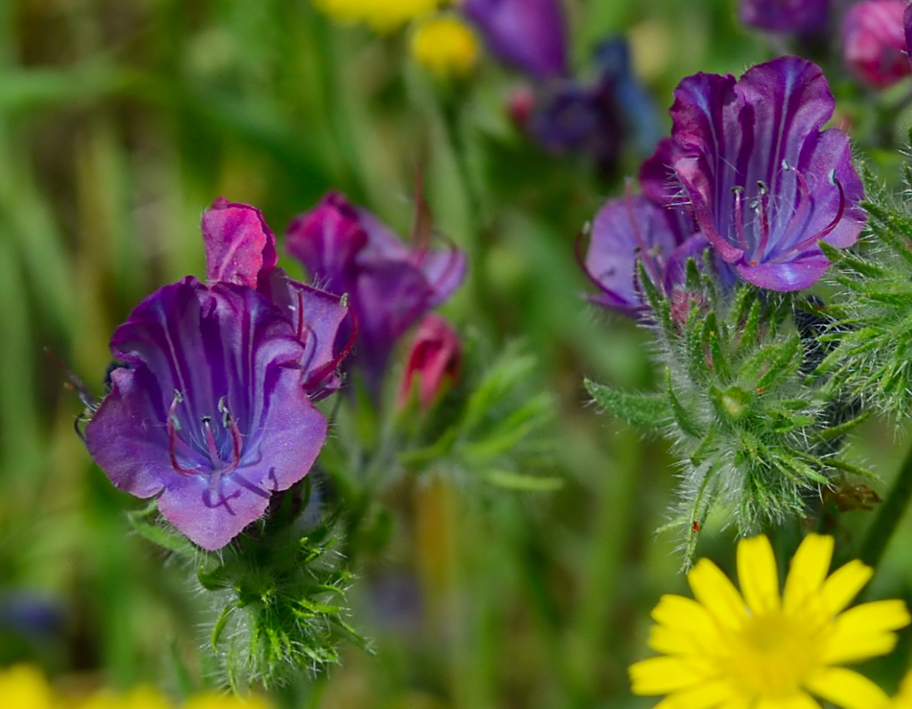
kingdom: Plantae
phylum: Tracheophyta
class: Magnoliopsida
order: Boraginales
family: Boraginaceae
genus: Echium
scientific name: Echium plantagineum
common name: Purple viper's-bugloss
